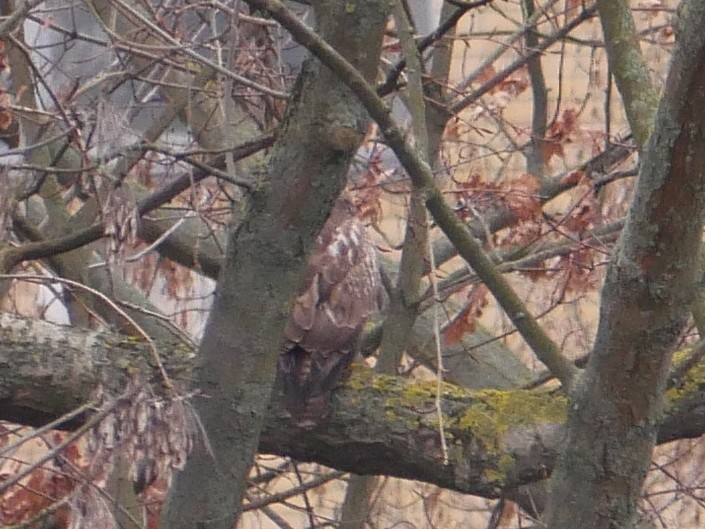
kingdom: Animalia
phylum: Chordata
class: Aves
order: Accipitriformes
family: Accipitridae
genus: Buteo
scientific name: Buteo buteo
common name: Common buzzard
